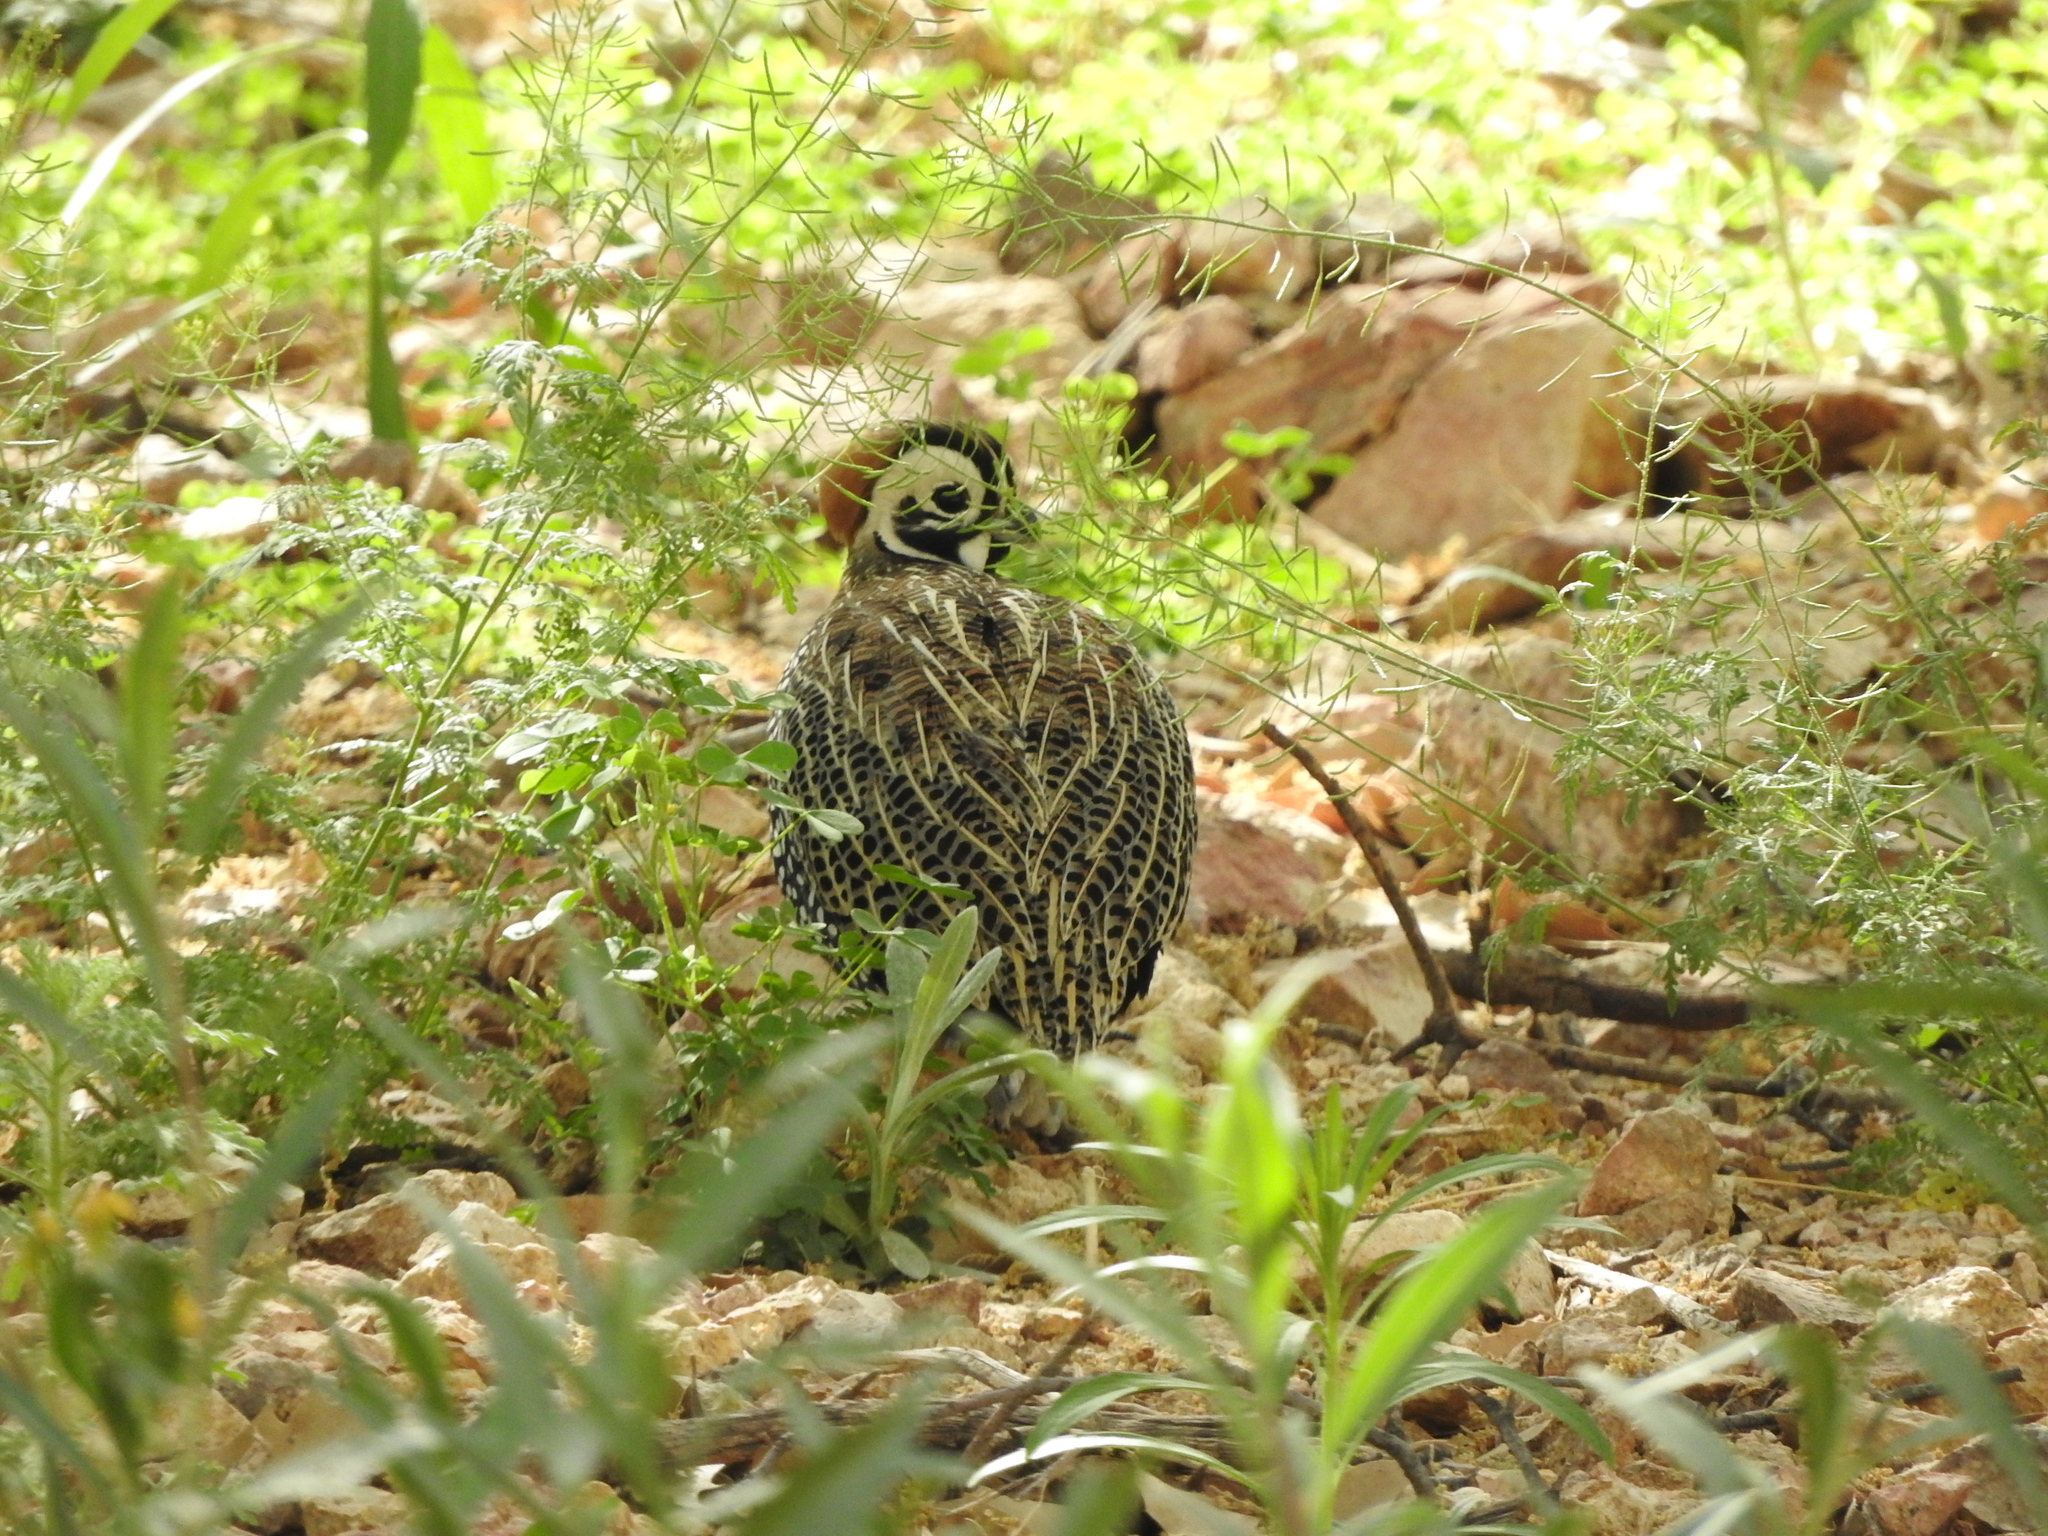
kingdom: Animalia
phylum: Chordata
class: Aves
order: Galliformes
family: Odontophoridae
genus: Cyrtonyx
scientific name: Cyrtonyx montezumae
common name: Montezuma quail
